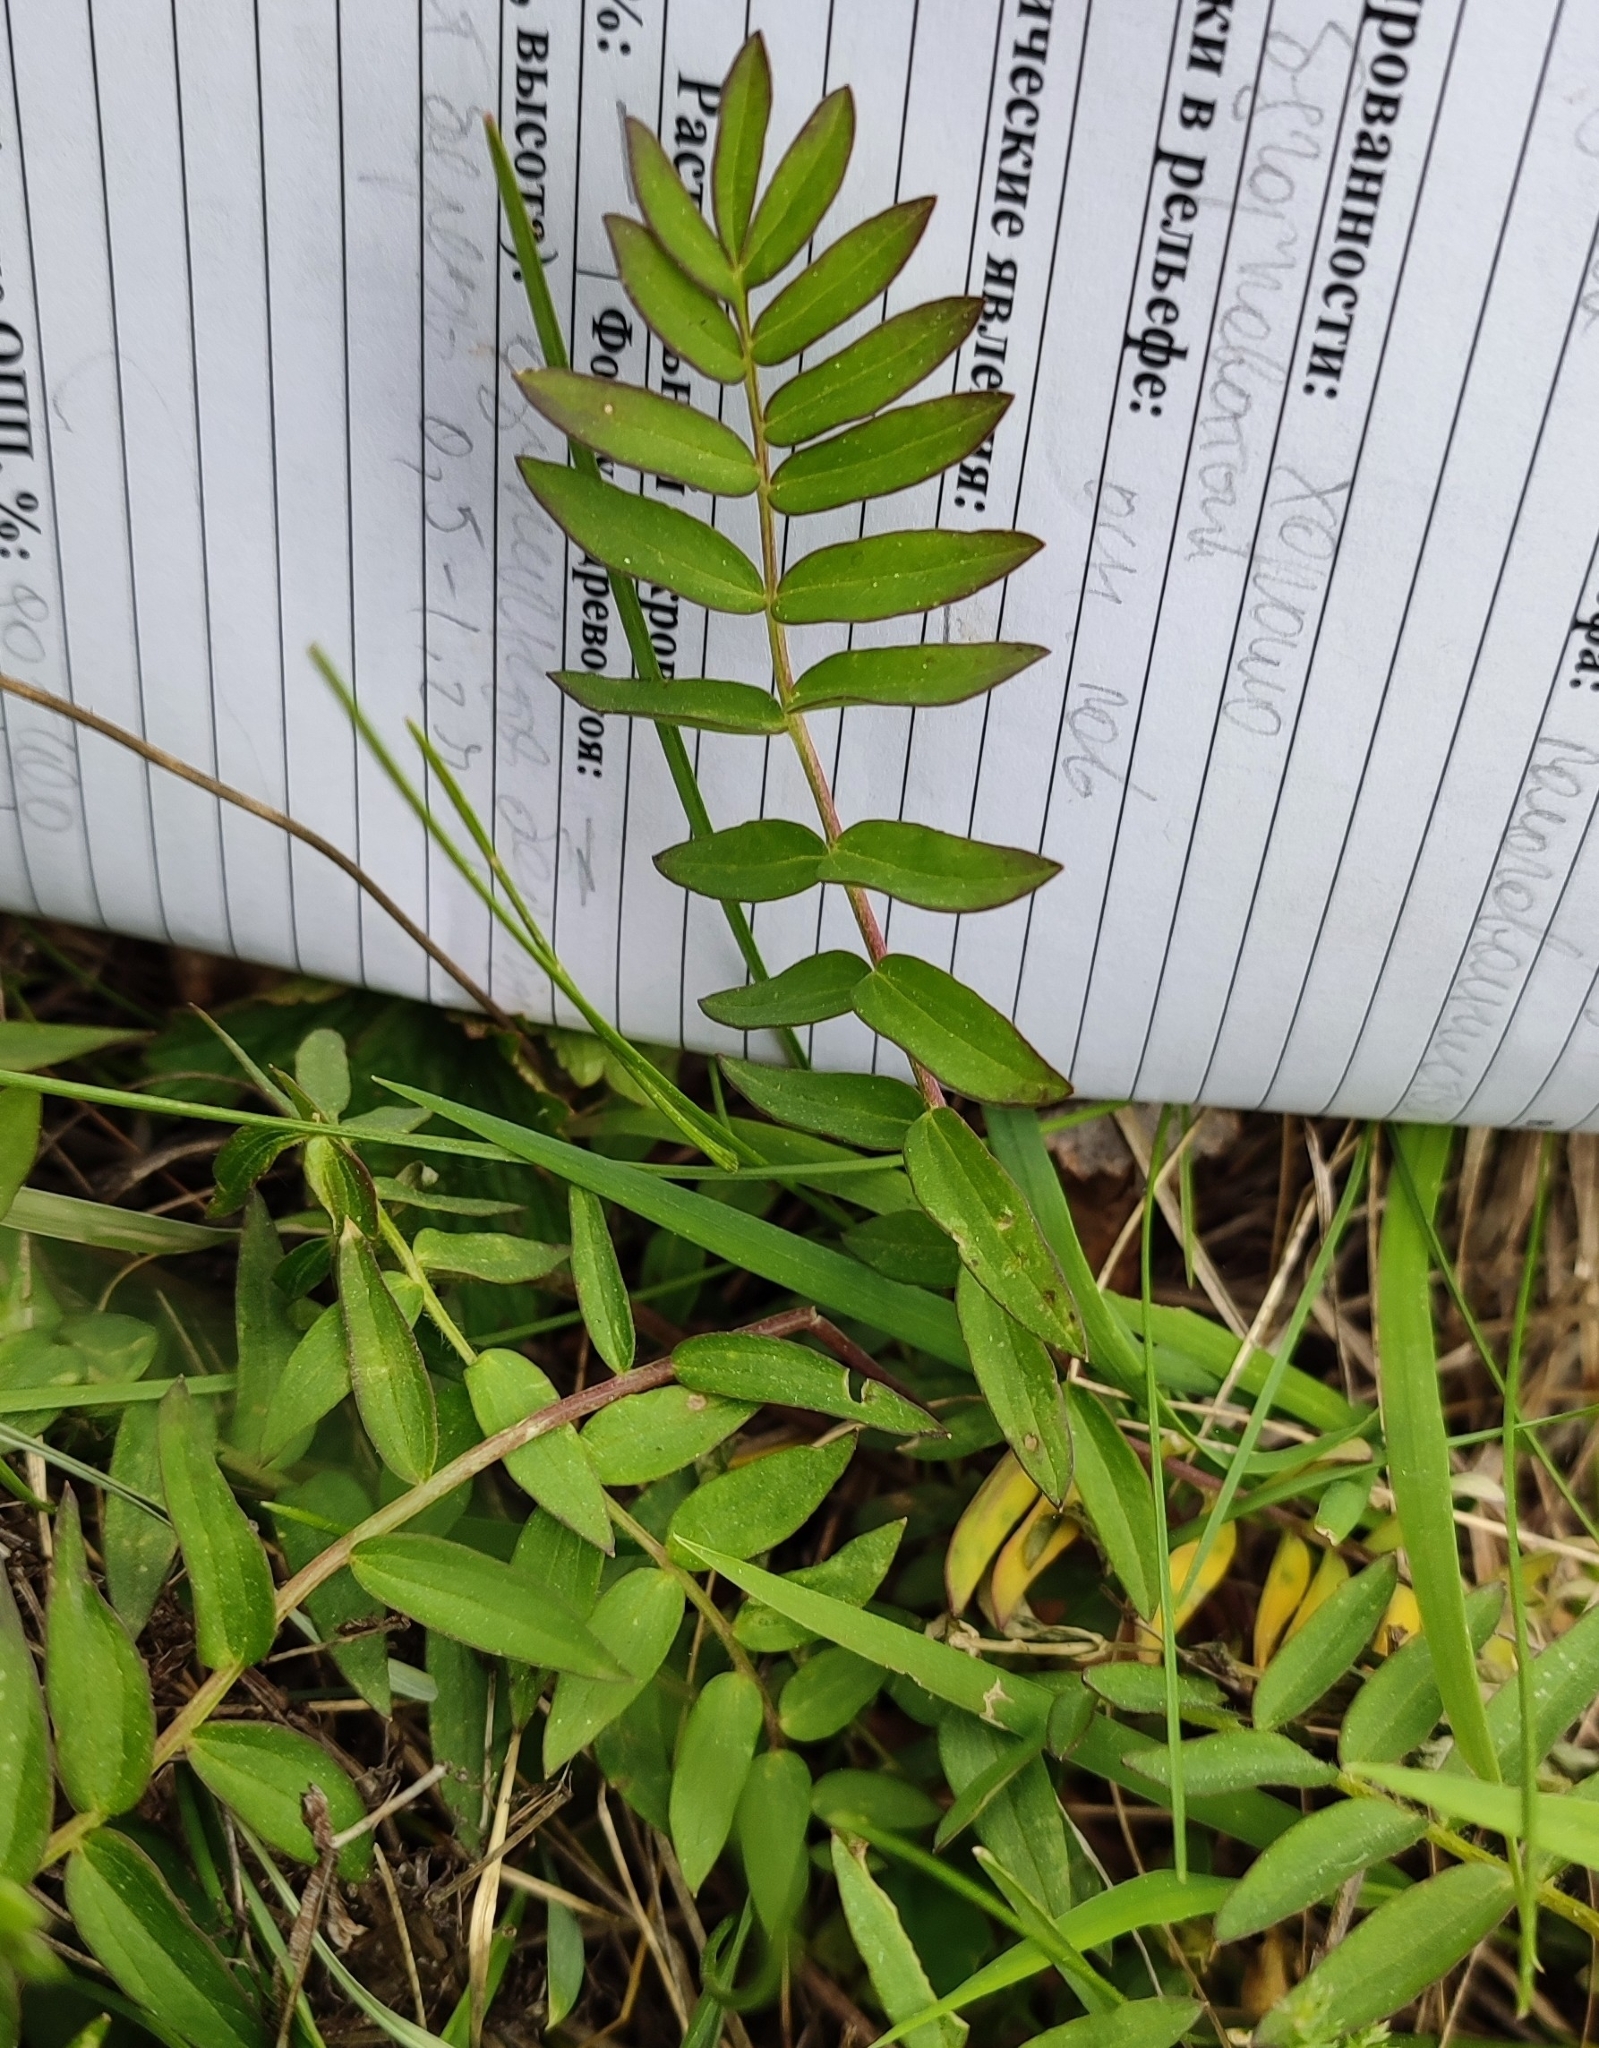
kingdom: Plantae
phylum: Tracheophyta
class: Magnoliopsida
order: Ericales
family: Polemoniaceae
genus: Polemonium
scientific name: Polemonium caeruleum
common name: Jacob's-ladder
